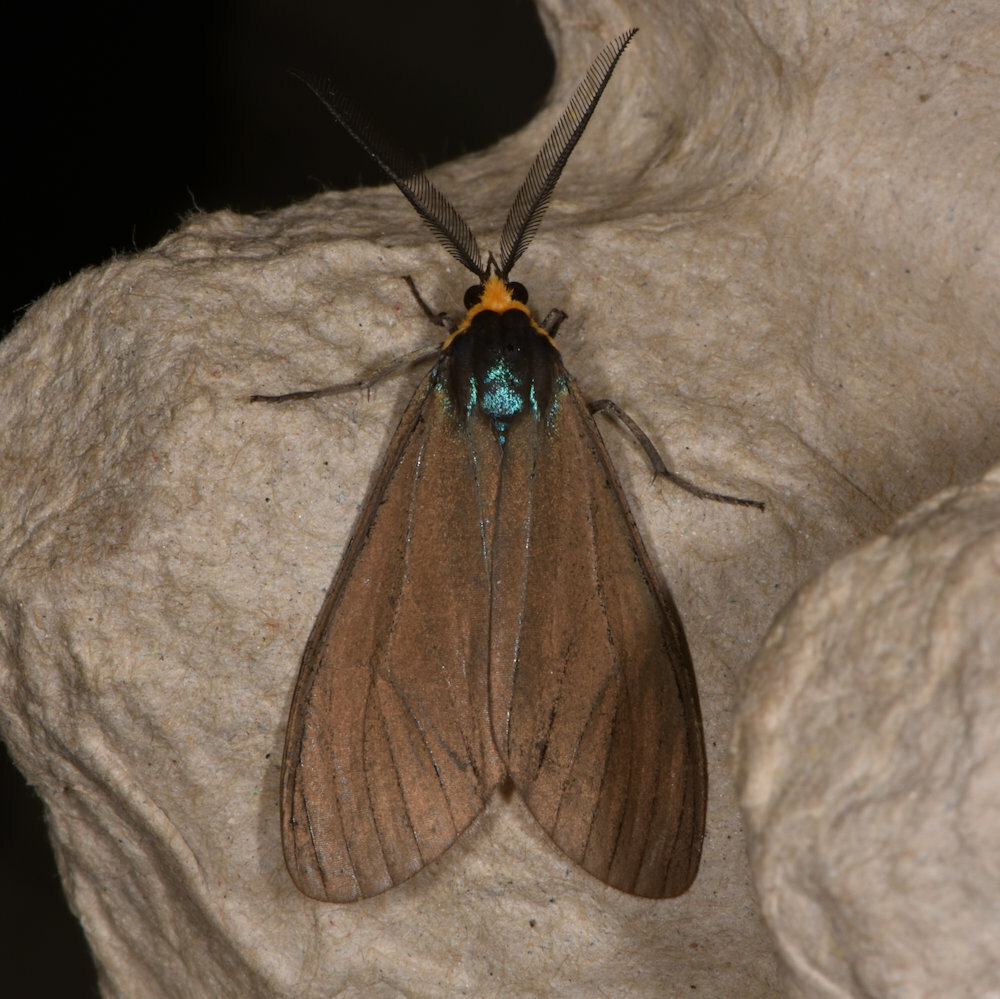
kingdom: Animalia
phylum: Arthropoda
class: Insecta
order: Lepidoptera
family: Erebidae
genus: Ctenucha
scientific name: Ctenucha virginica
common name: Virginia ctenucha moth
